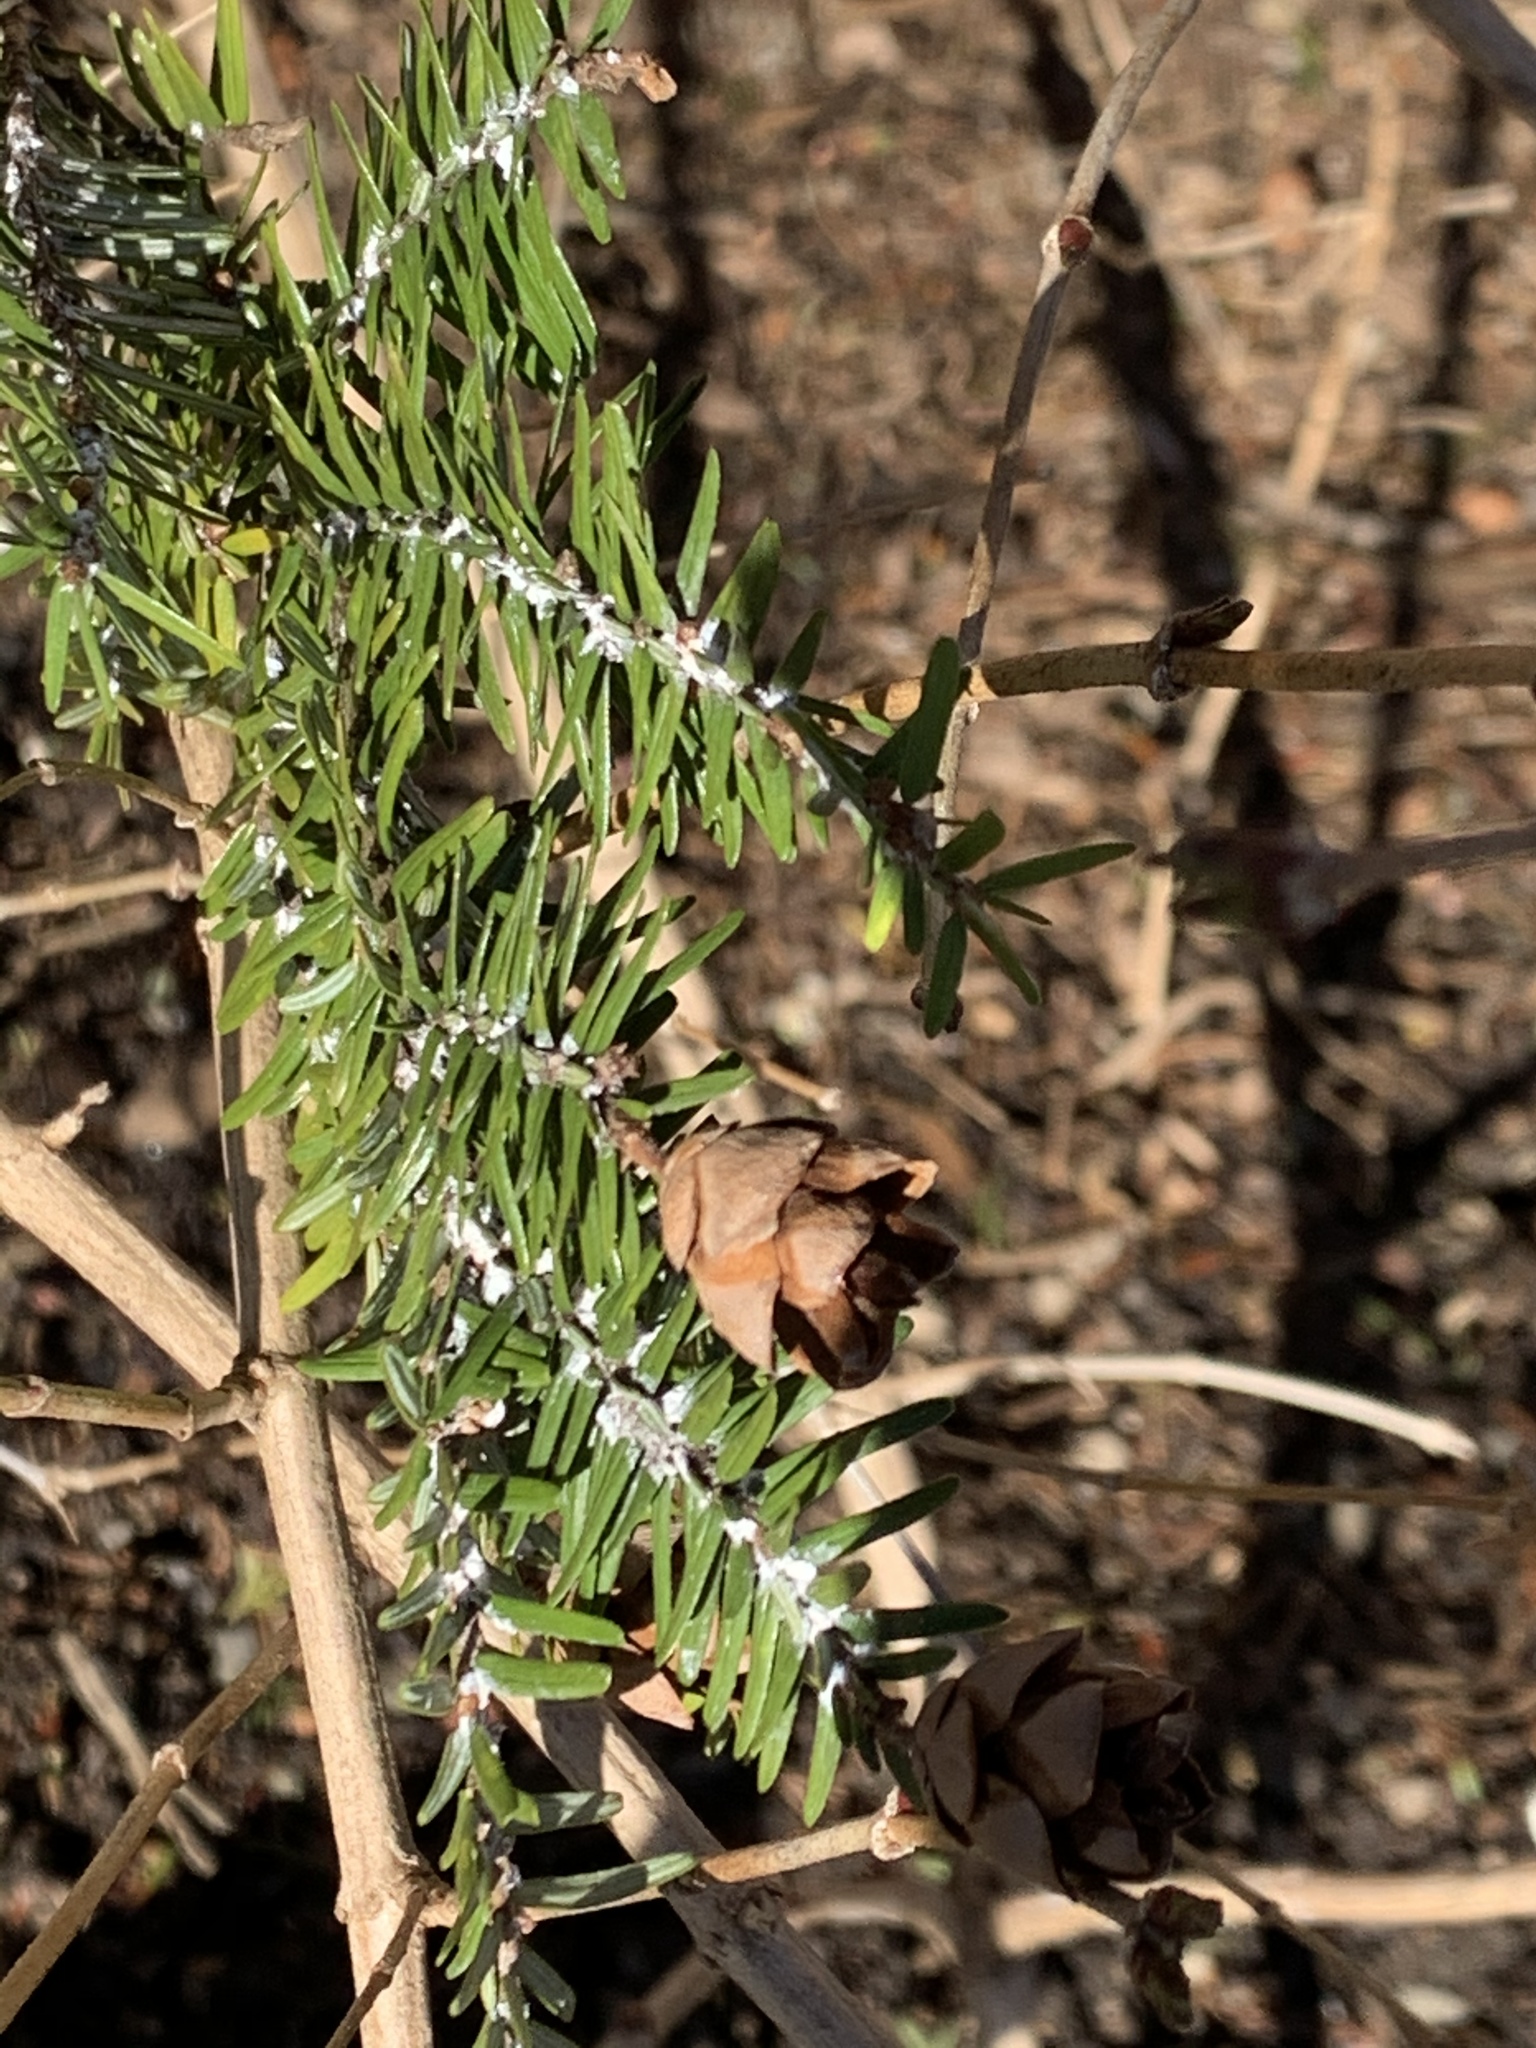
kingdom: Animalia
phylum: Arthropoda
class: Insecta
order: Hemiptera
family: Adelgidae
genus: Adelges
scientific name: Adelges tsugae
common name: Hemlock woolly adelgid
